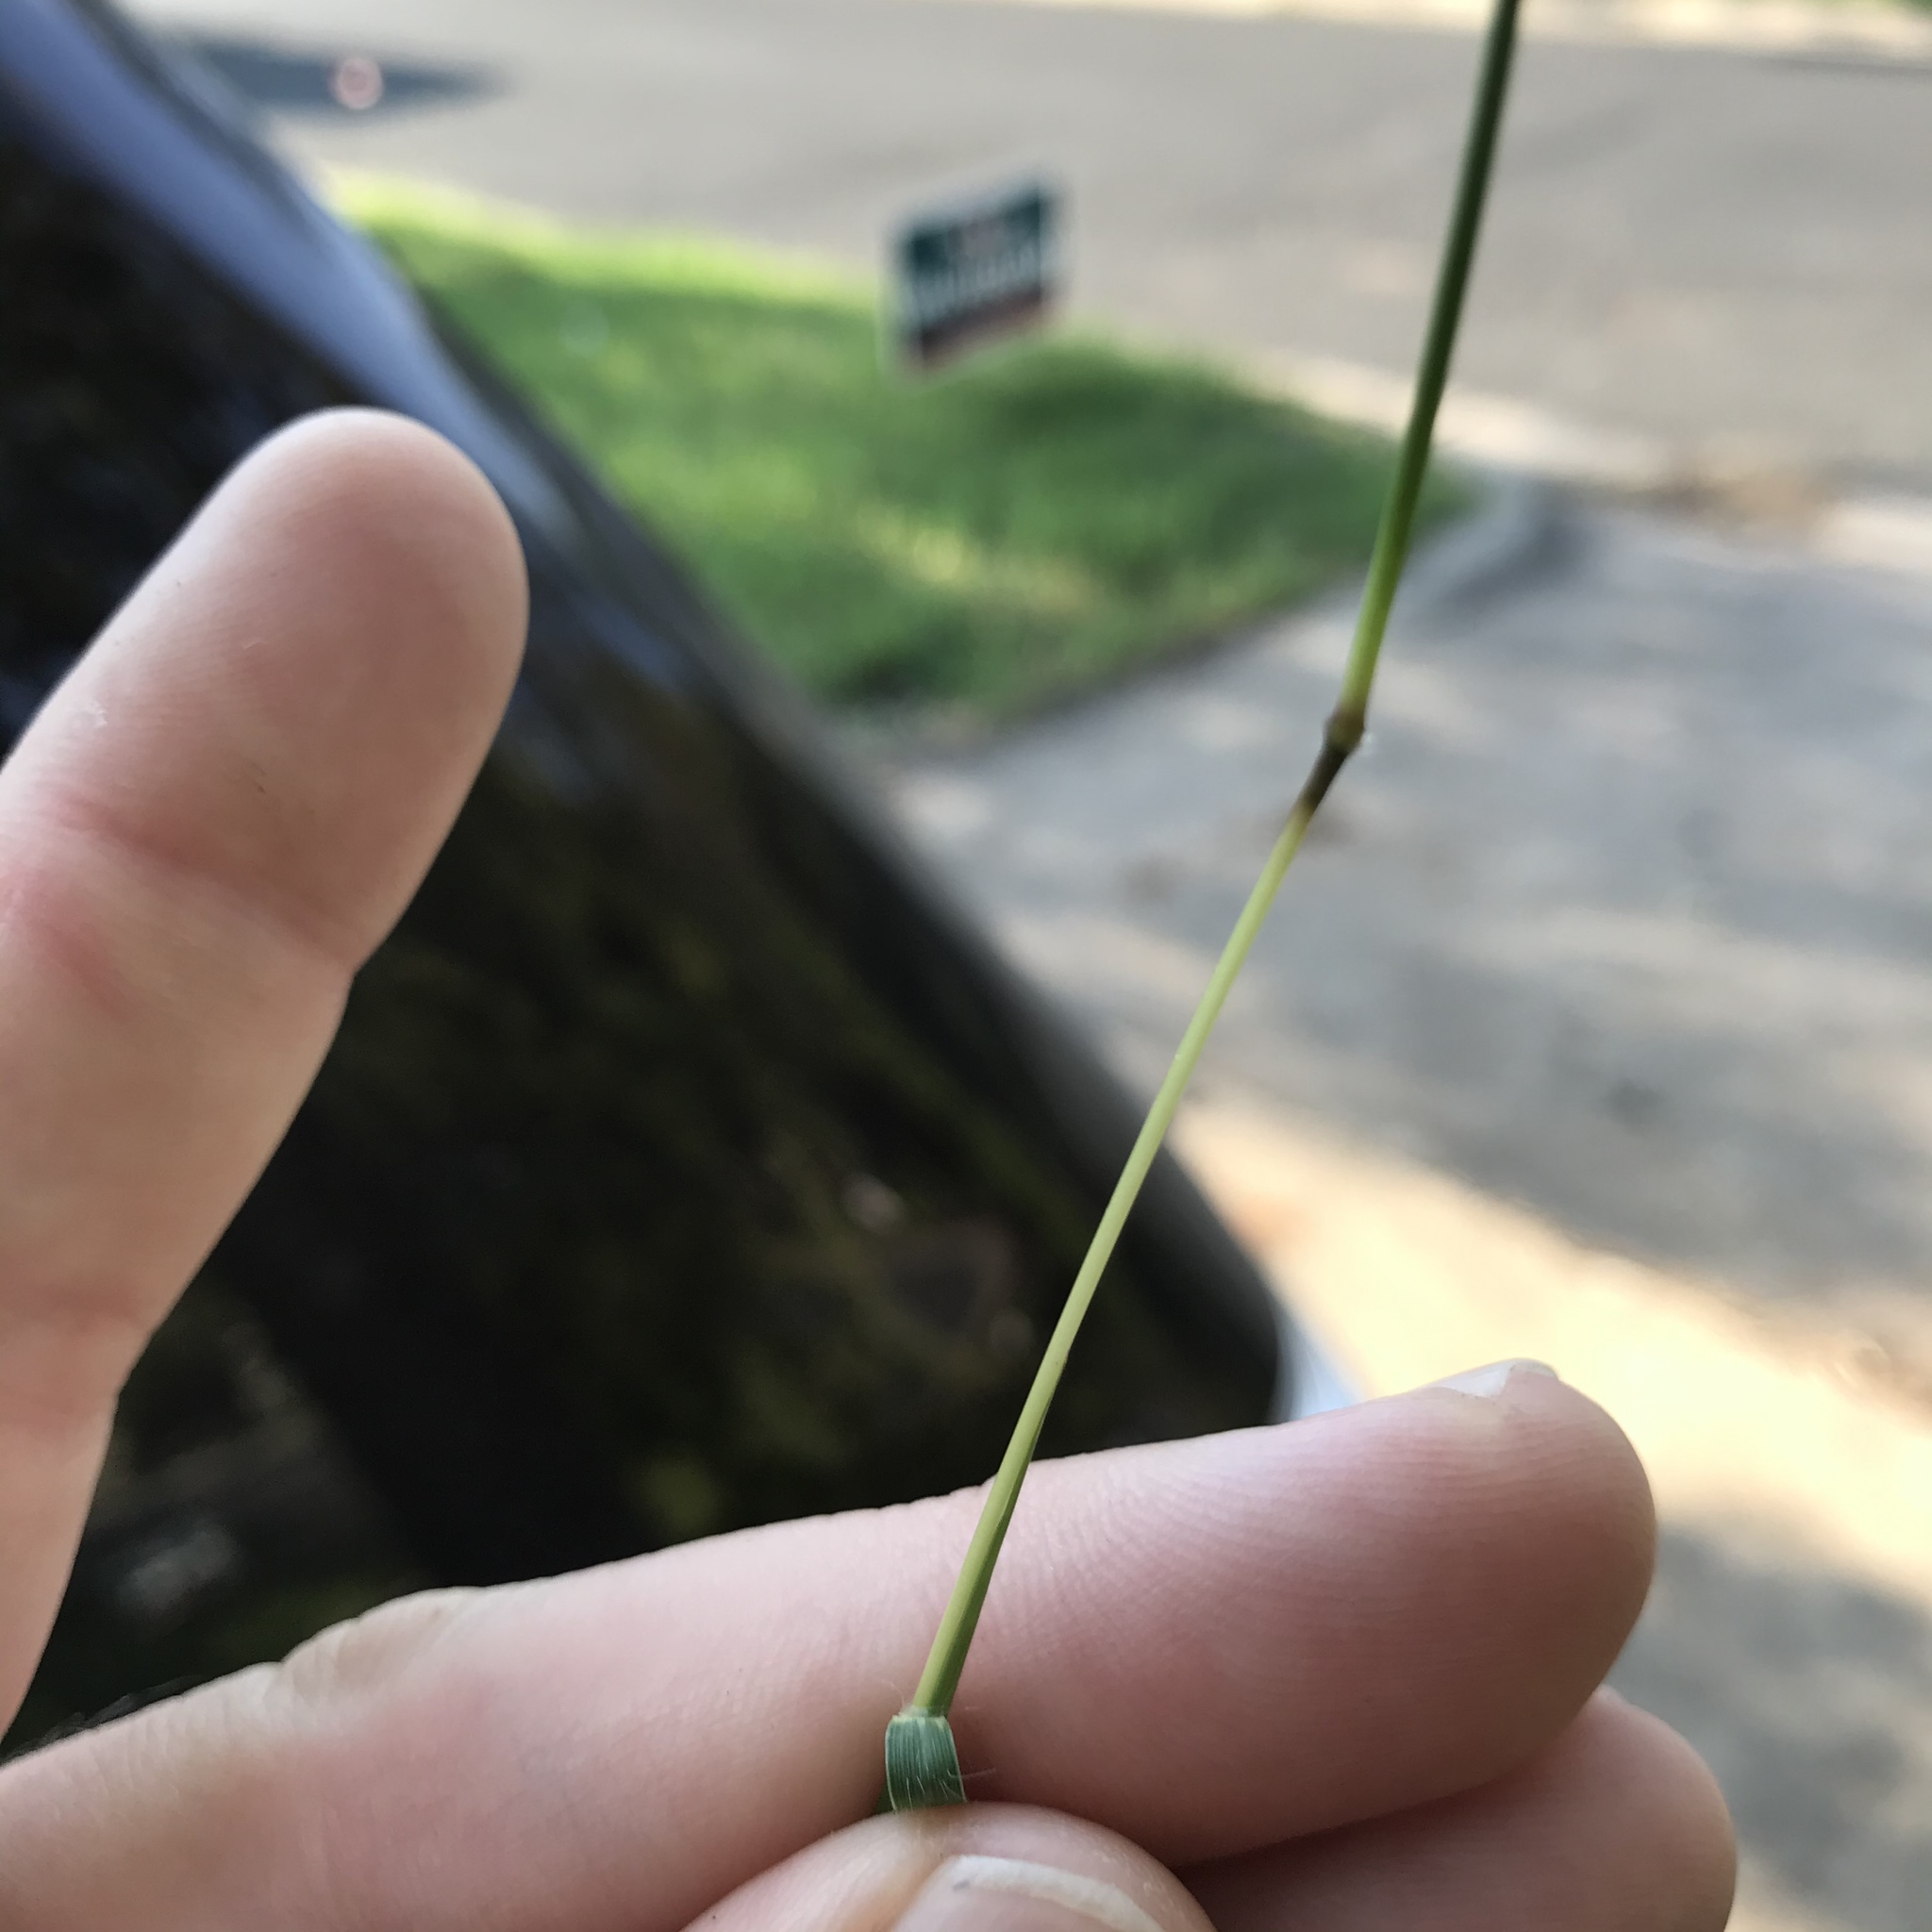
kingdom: Plantae
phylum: Tracheophyta
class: Liliopsida
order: Poales
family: Poaceae
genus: Bothriochloa
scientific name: Bothriochloa ischaemum
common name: Yellow bluestem
